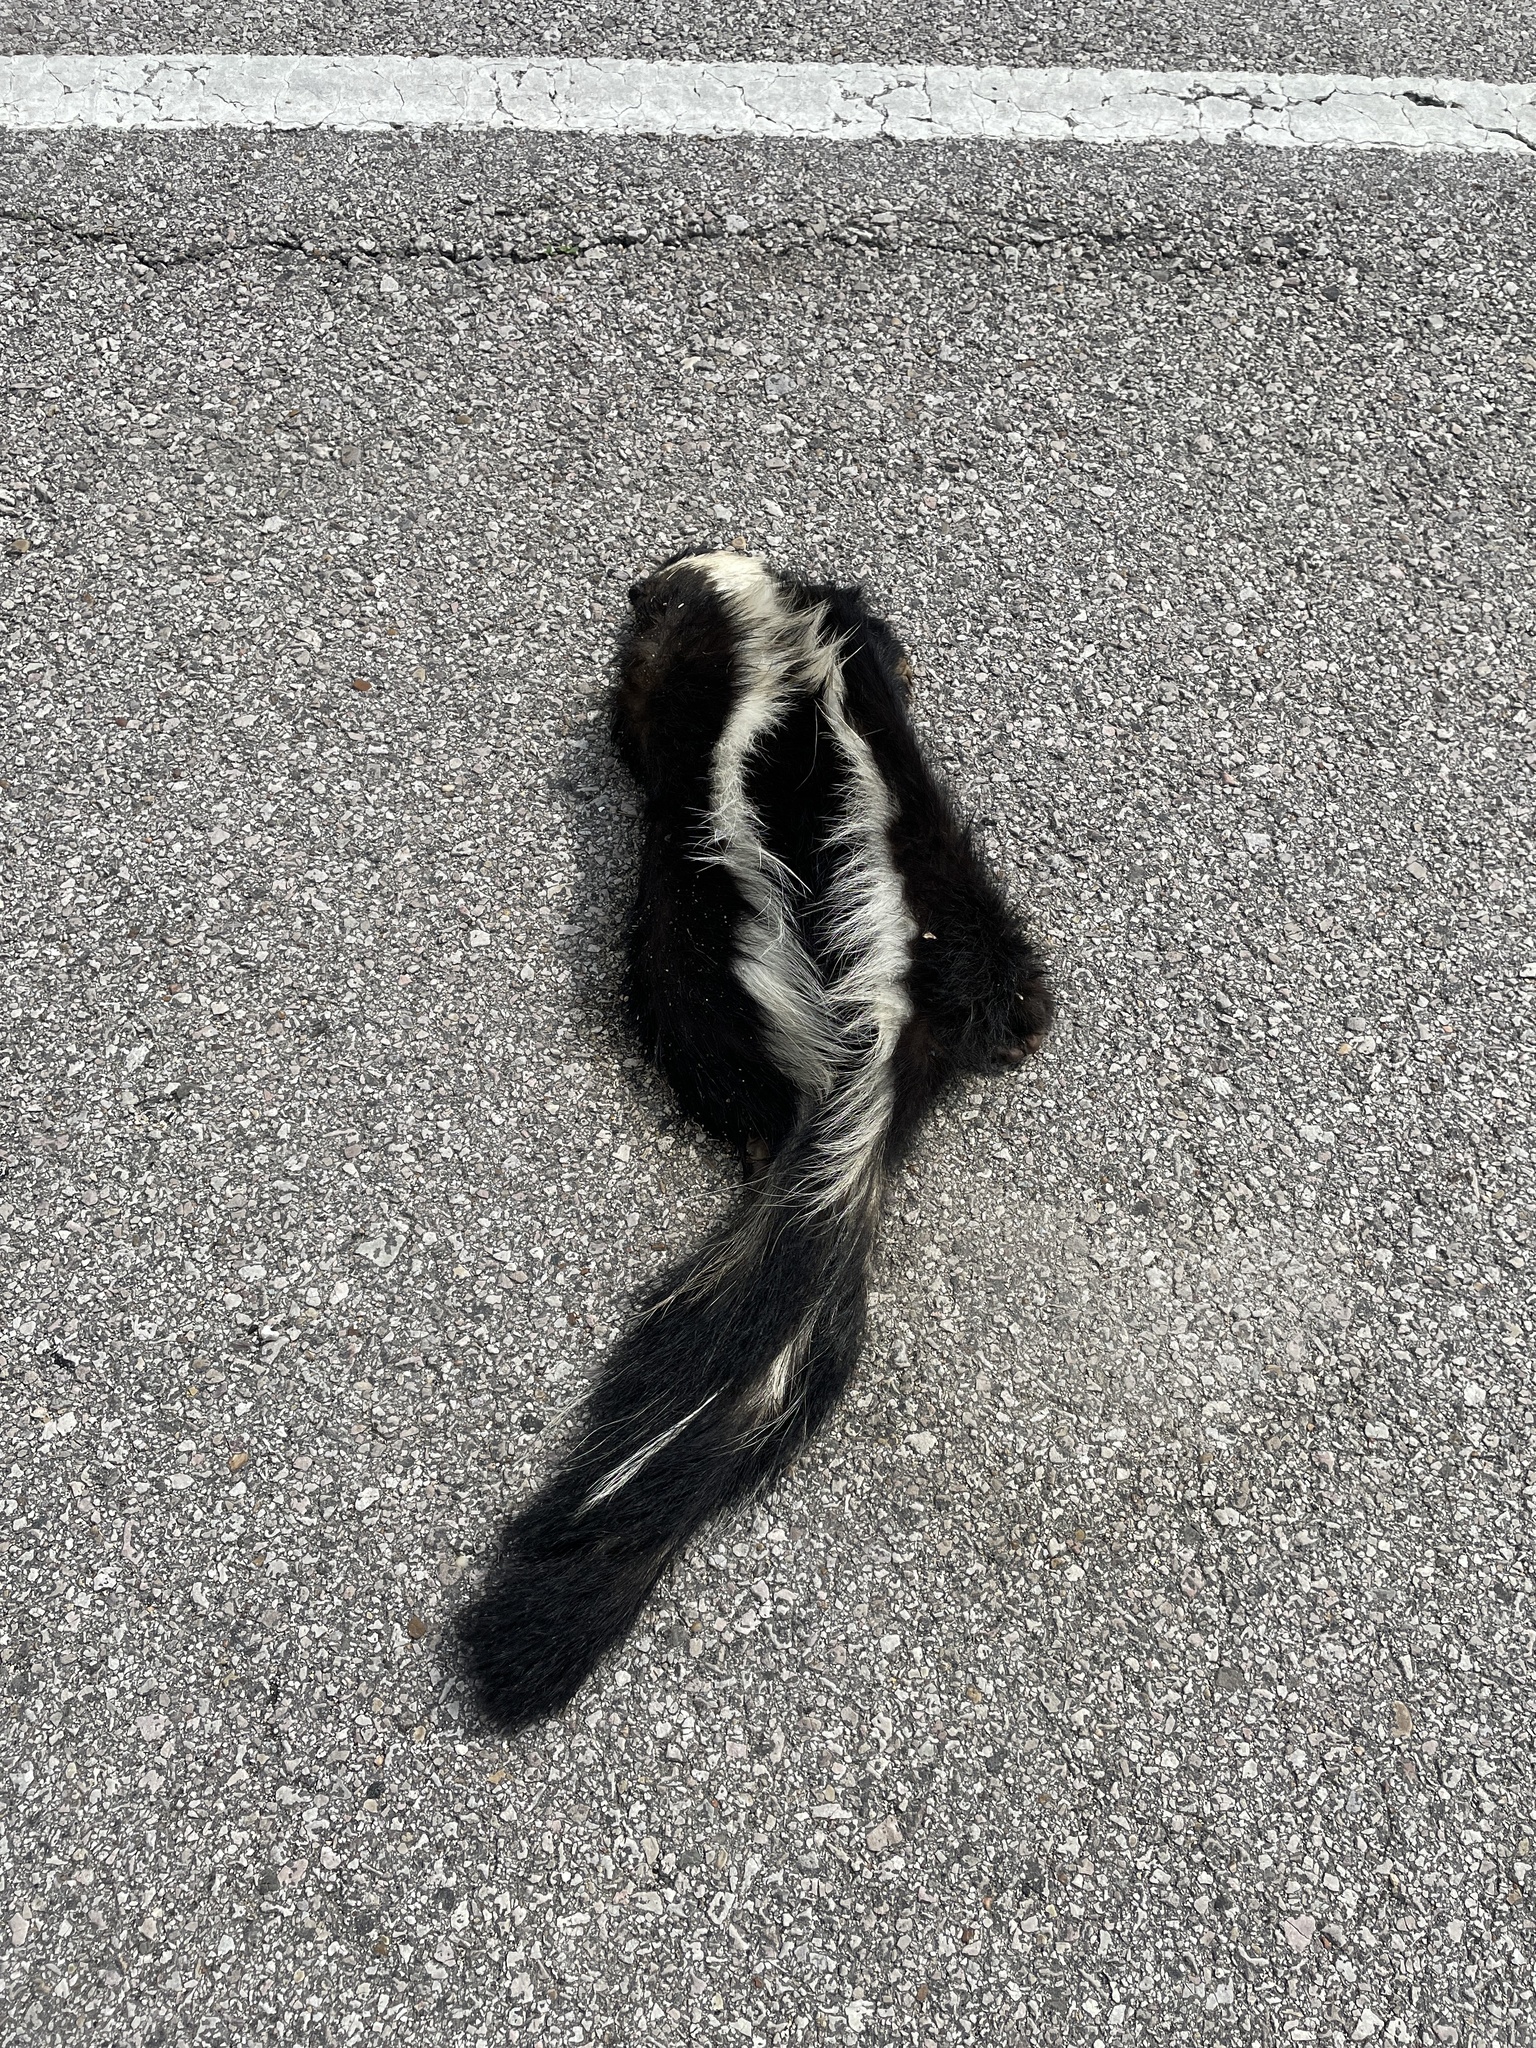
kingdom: Animalia
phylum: Chordata
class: Mammalia
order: Carnivora
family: Mephitidae
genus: Mephitis
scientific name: Mephitis mephitis
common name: Striped skunk
